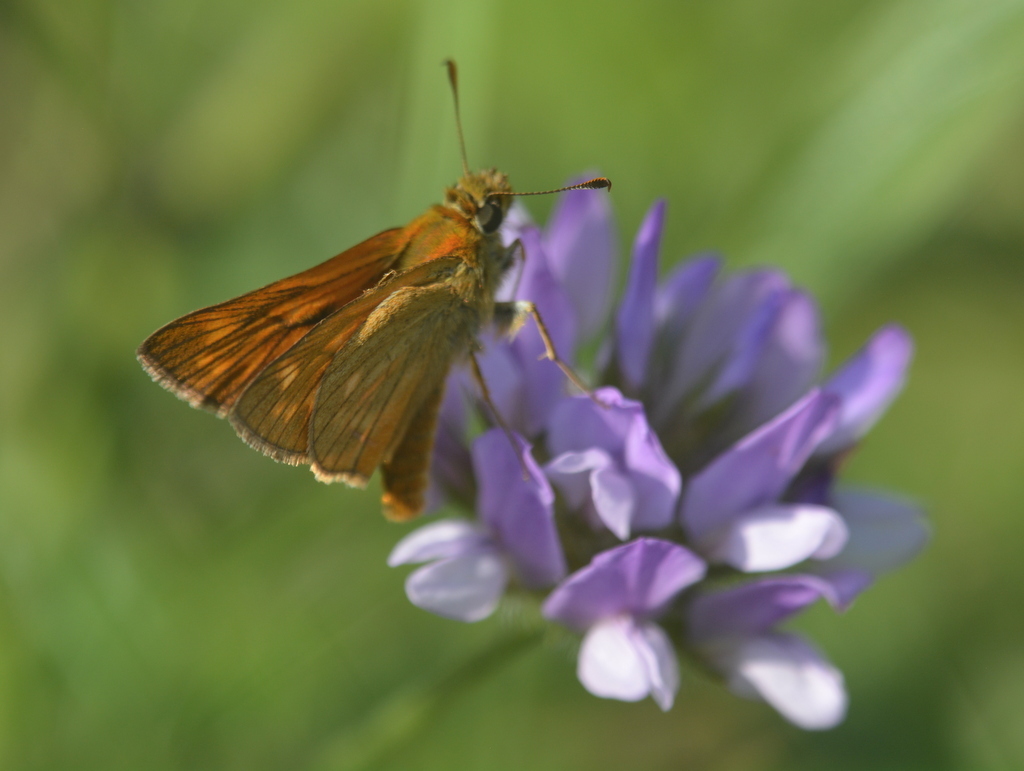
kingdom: Animalia
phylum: Arthropoda
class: Insecta
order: Lepidoptera
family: Hesperiidae
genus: Ochlodes
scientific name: Ochlodes venata
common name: Large skipper
